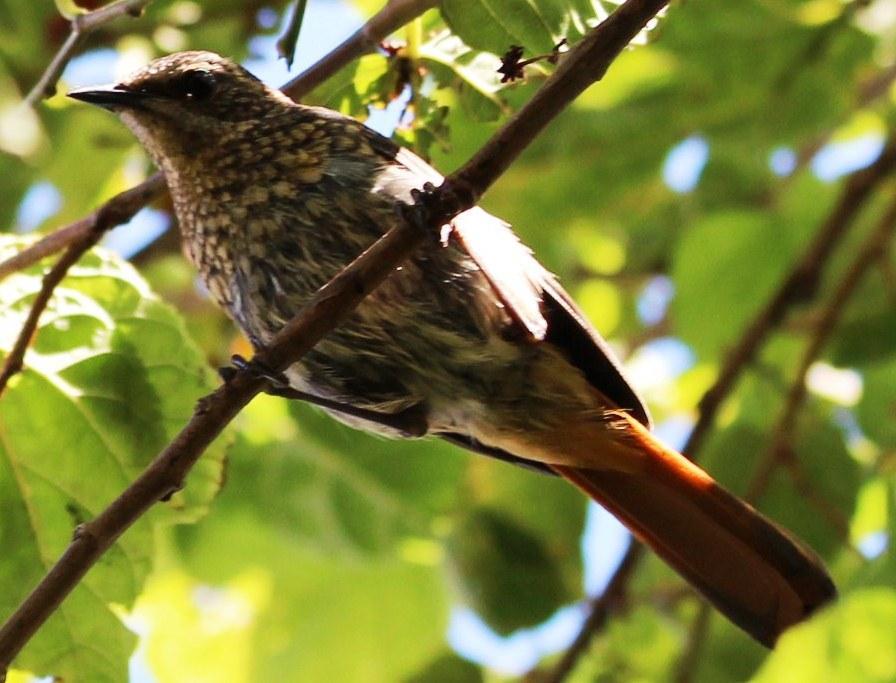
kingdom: Animalia
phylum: Chordata
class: Aves
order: Passeriformes
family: Muscicapidae
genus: Cossypha
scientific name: Cossypha caffra
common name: Cape robin-chat
